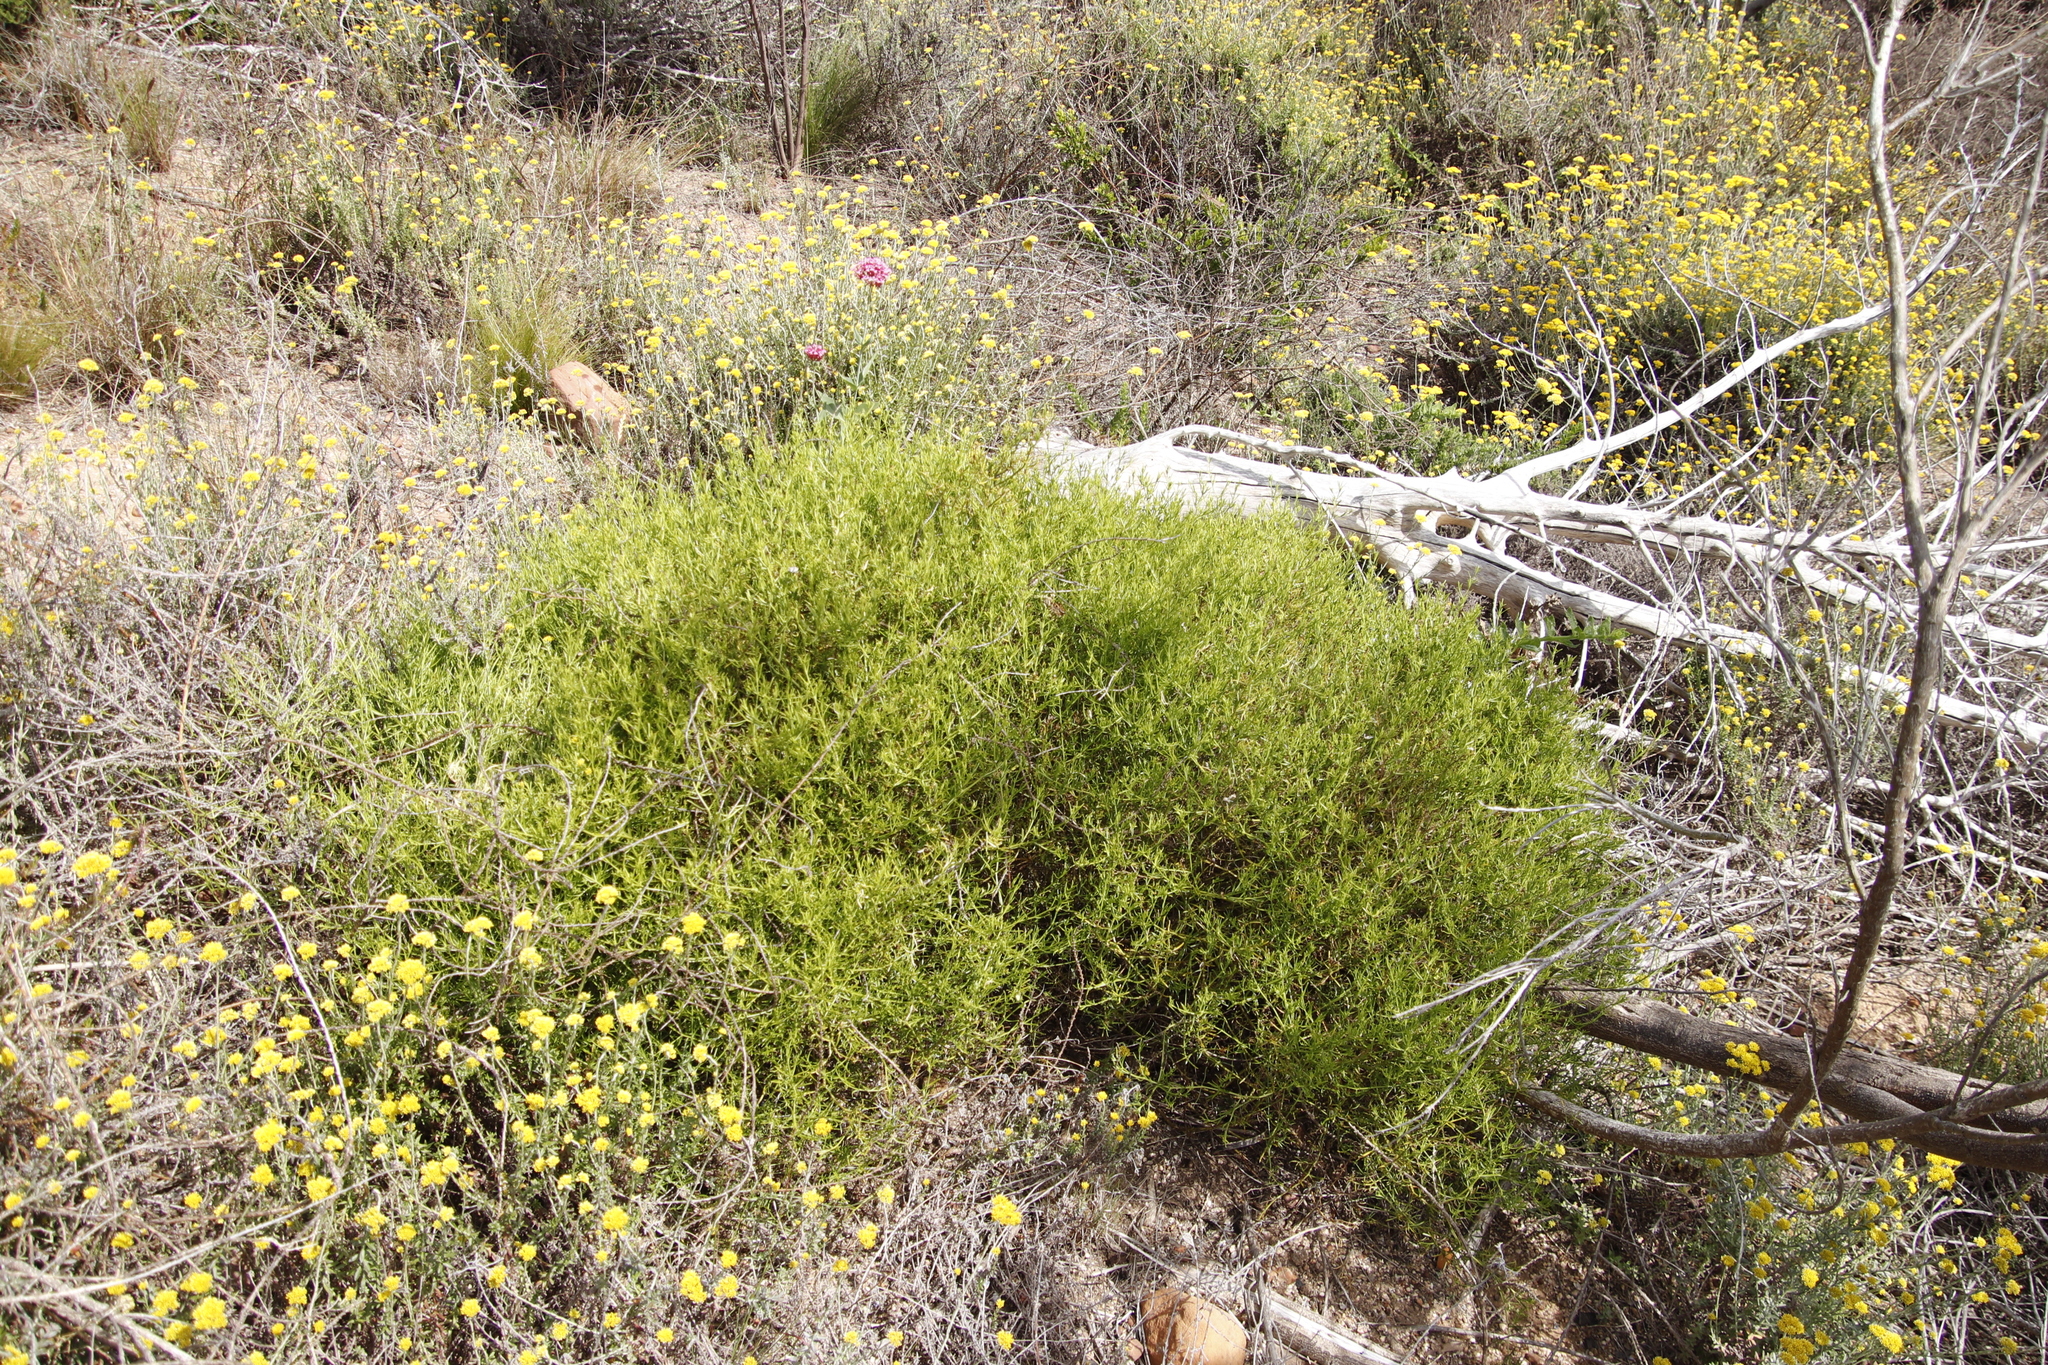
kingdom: Plantae
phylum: Tracheophyta
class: Magnoliopsida
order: Gentianales
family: Gentianaceae
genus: Chironia
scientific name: Chironia baccifera
